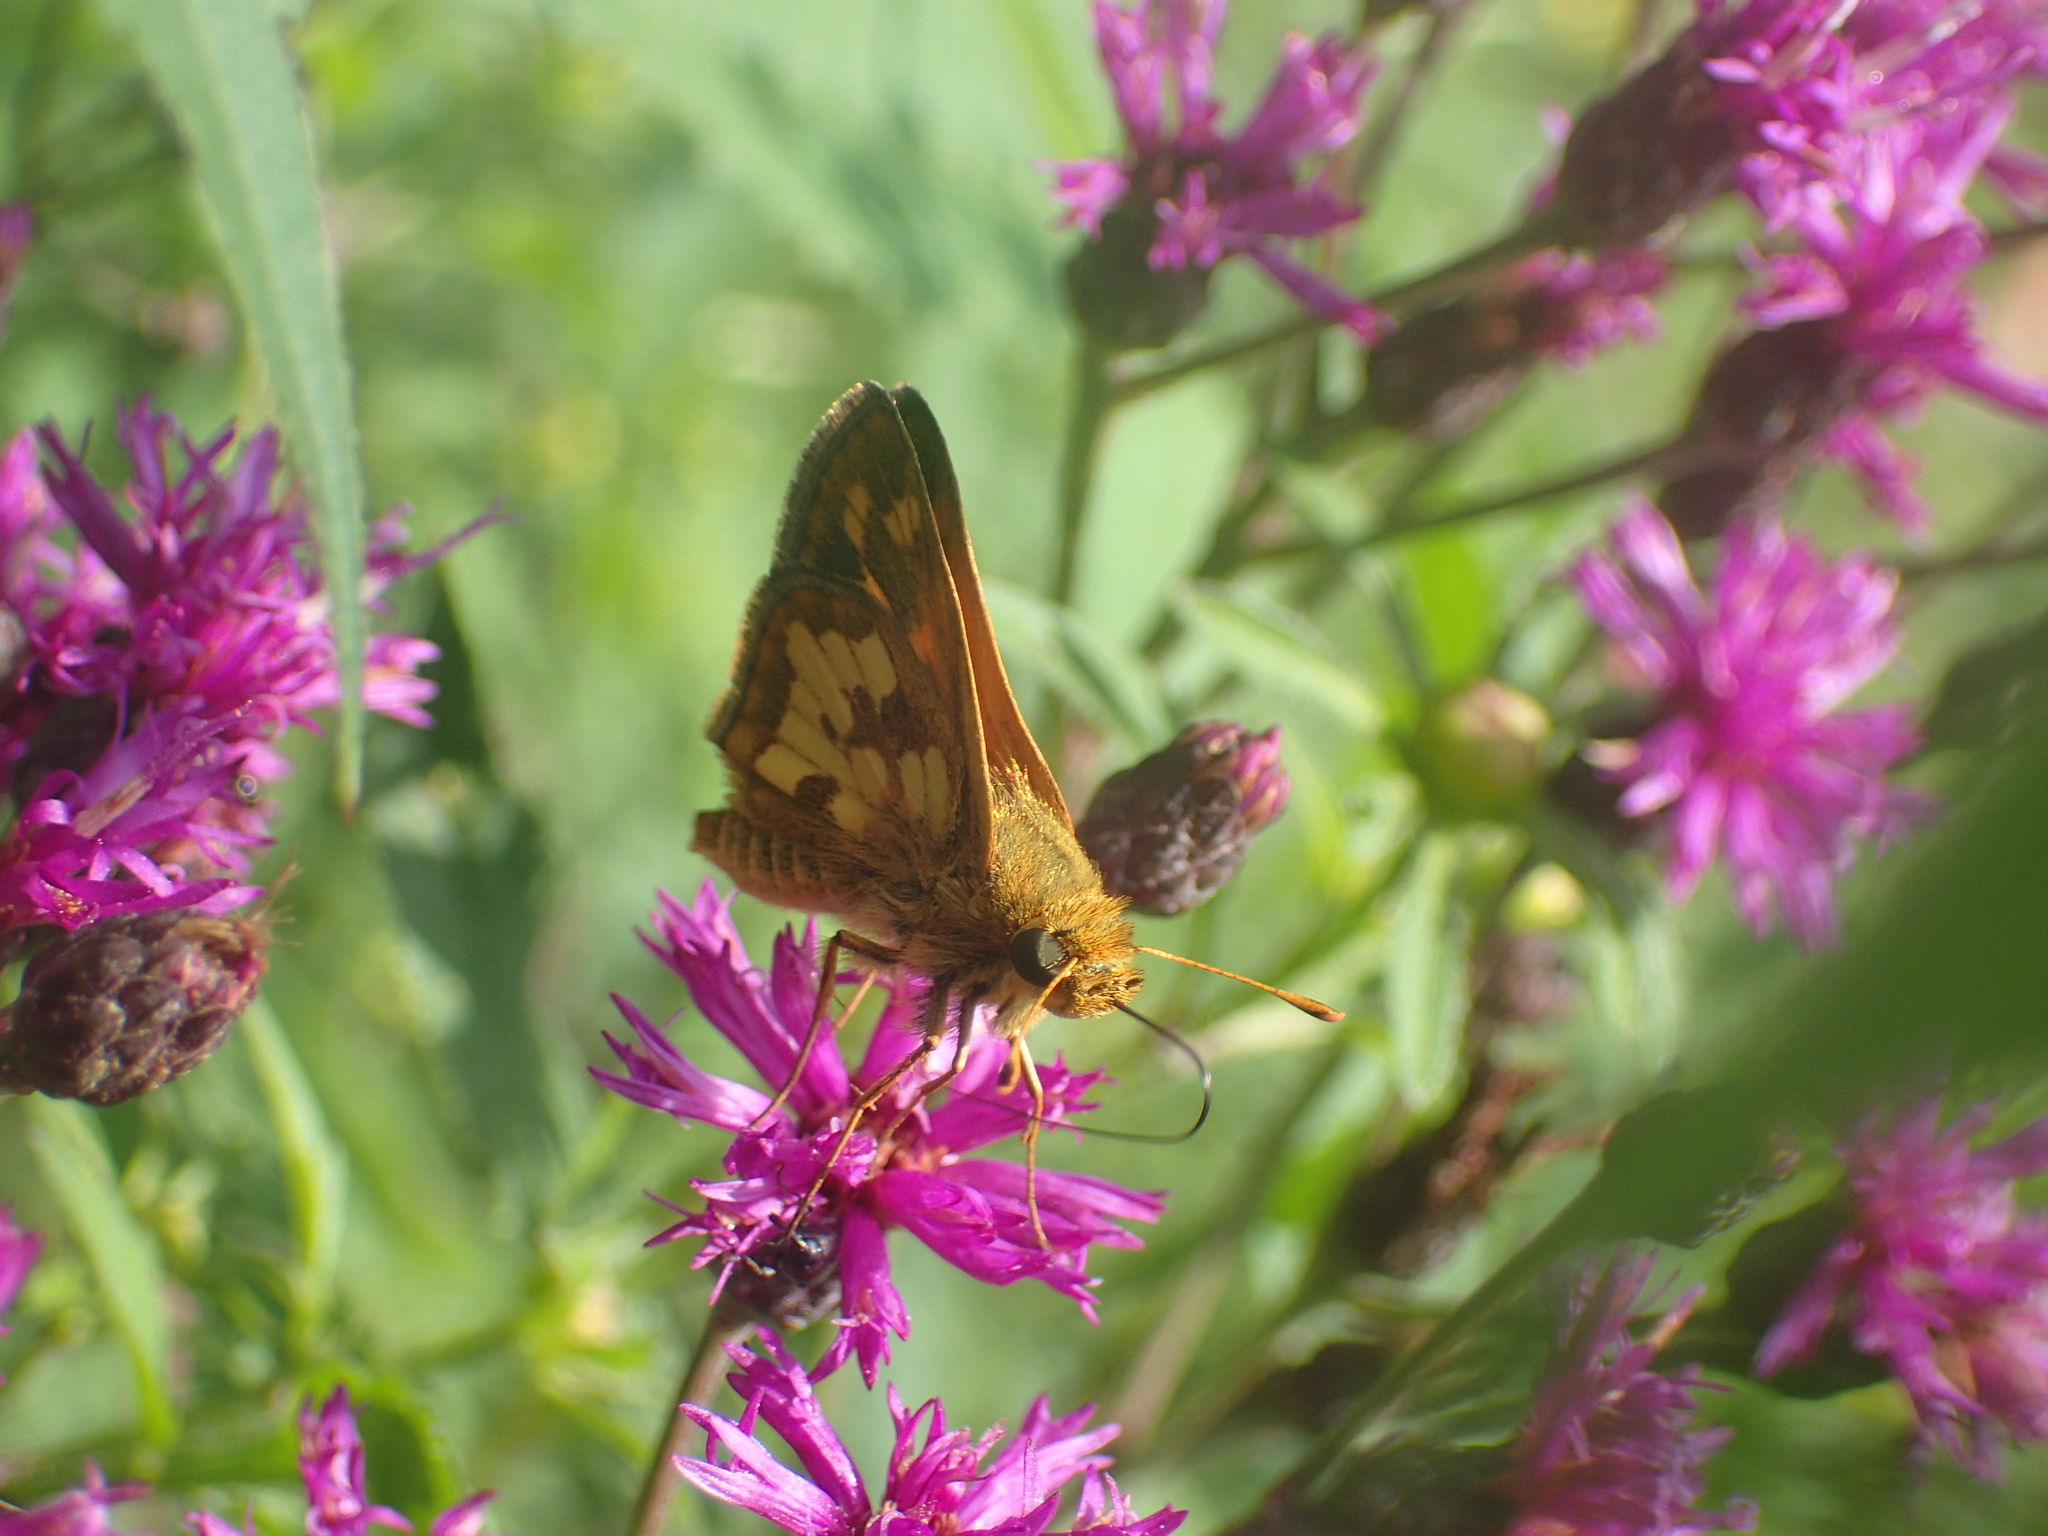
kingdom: Animalia
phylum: Arthropoda
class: Insecta
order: Lepidoptera
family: Hesperiidae
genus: Polites
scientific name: Polites coras
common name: Peck's skipper
